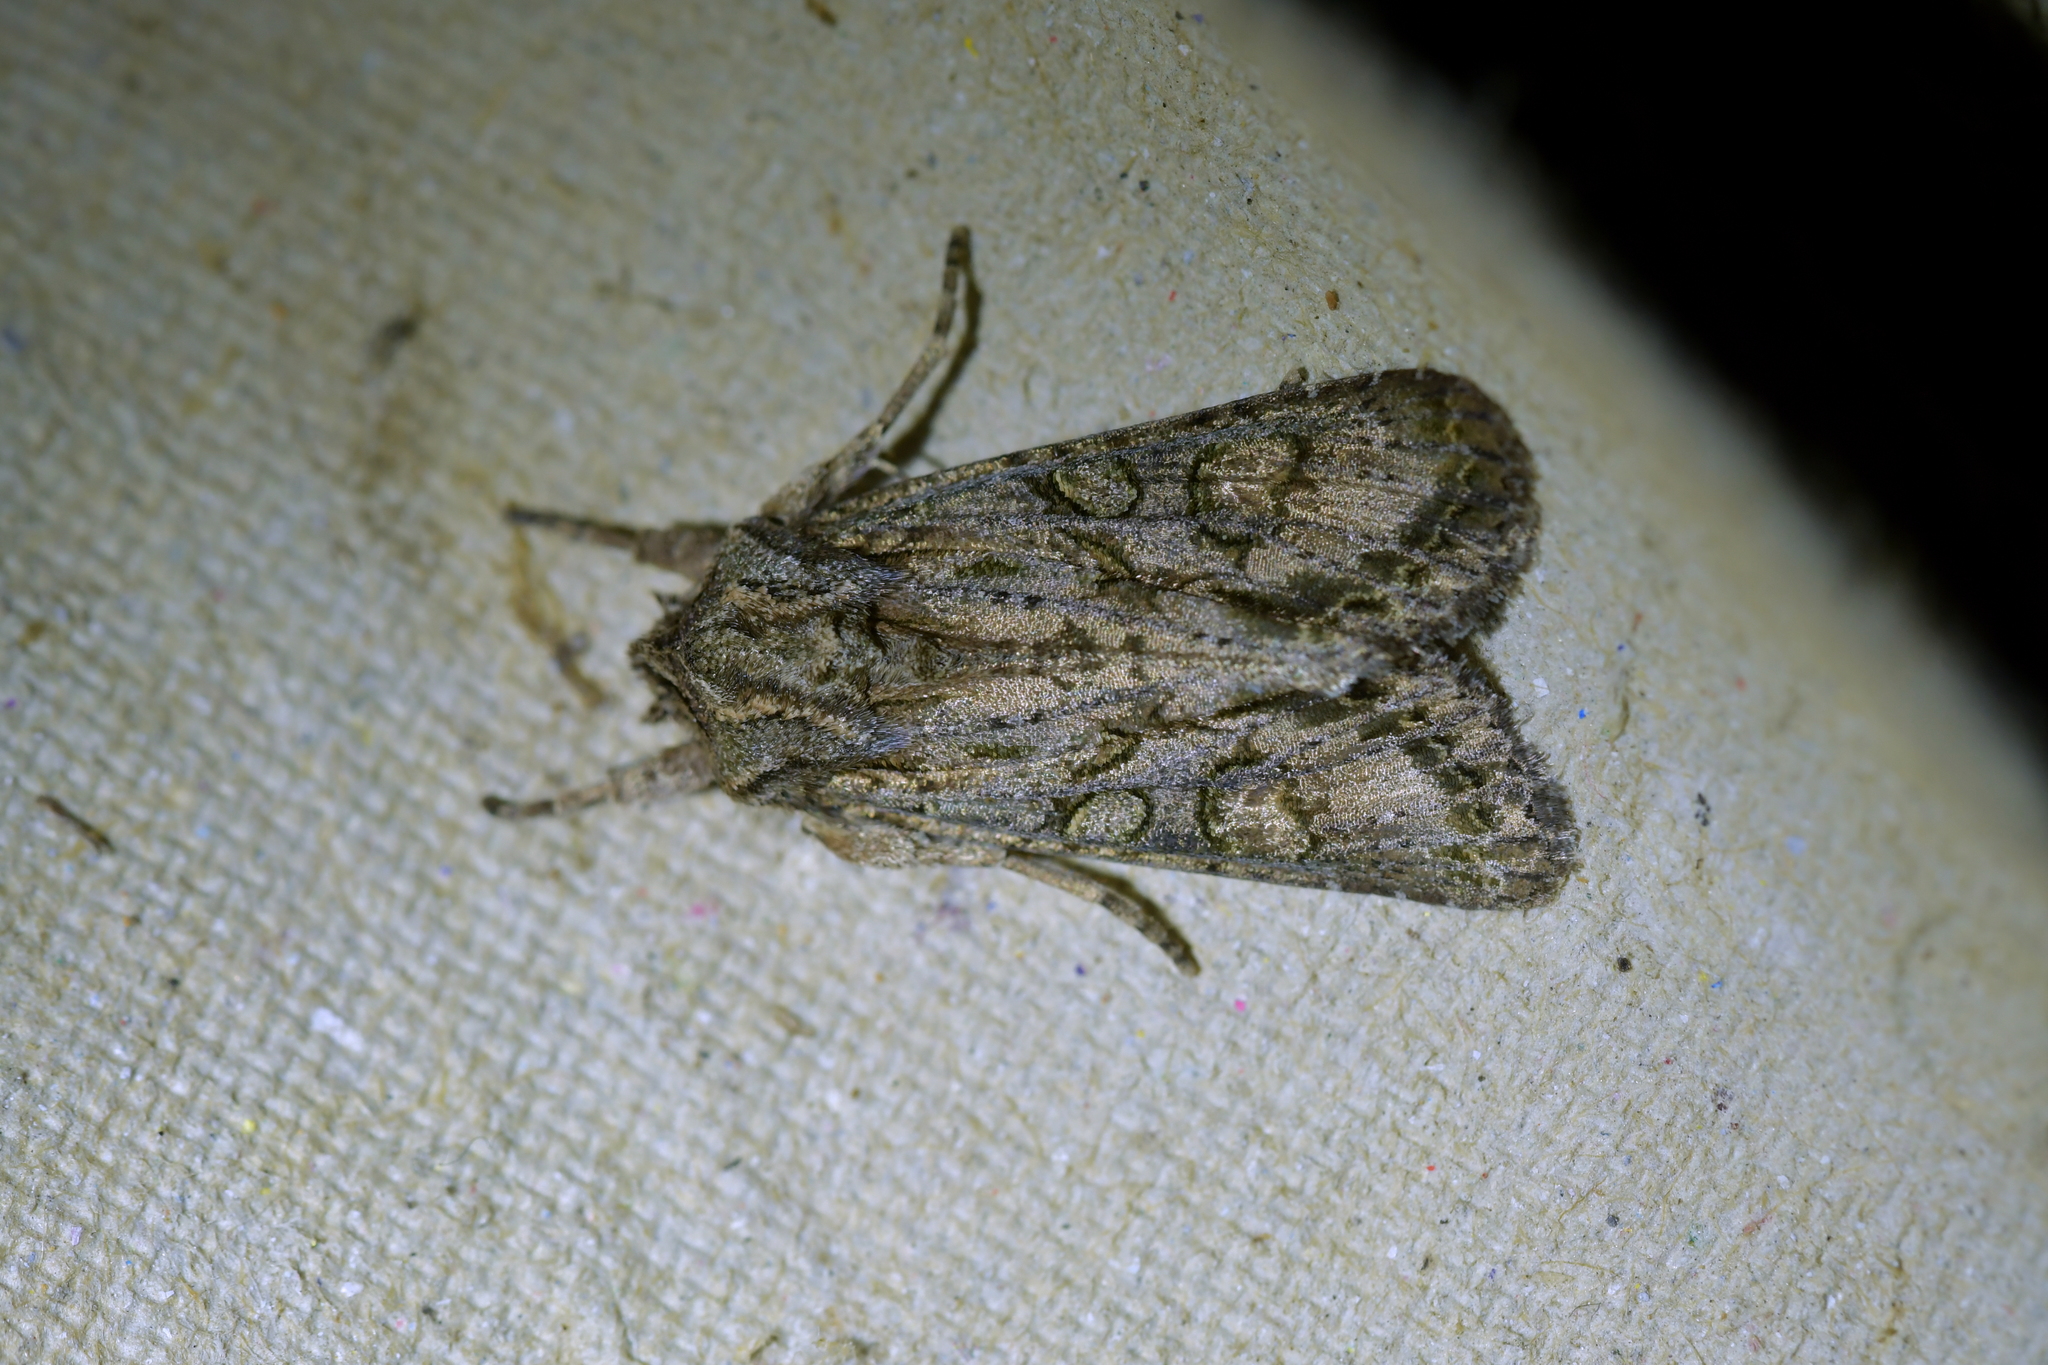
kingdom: Animalia
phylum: Arthropoda
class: Insecta
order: Lepidoptera
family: Noctuidae
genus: Ichneutica
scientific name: Ichneutica mutans
